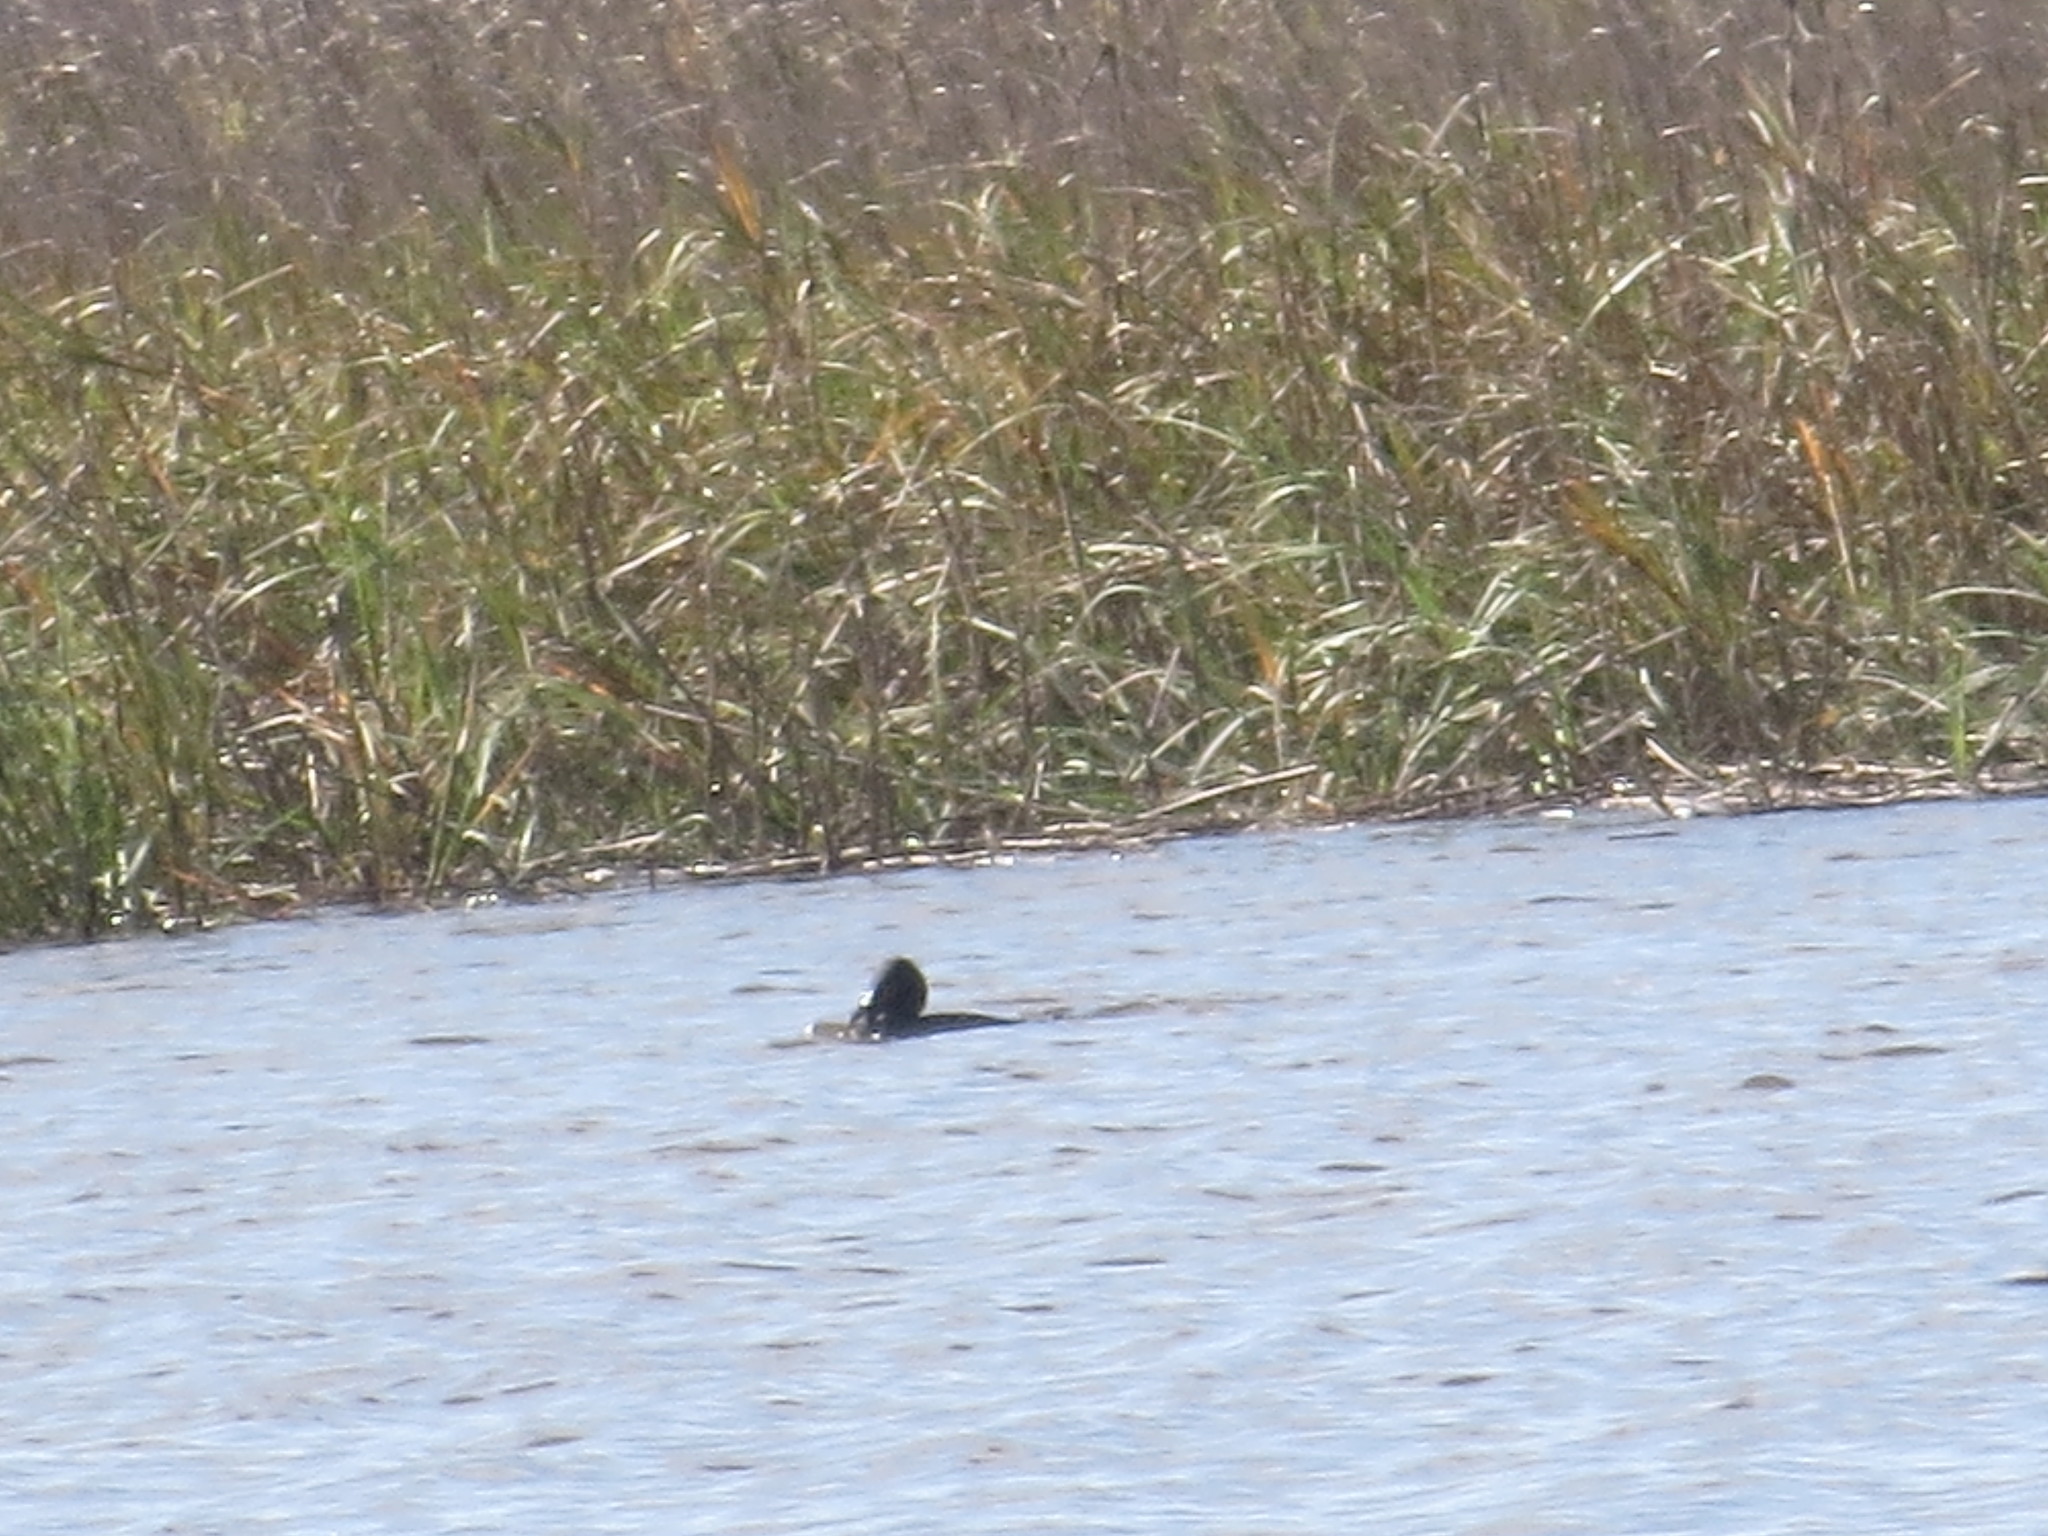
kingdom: Animalia
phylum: Chordata
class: Aves
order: Suliformes
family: Phalacrocoracidae
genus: Phalacrocorax
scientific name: Phalacrocorax auritus
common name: Double-crested cormorant
